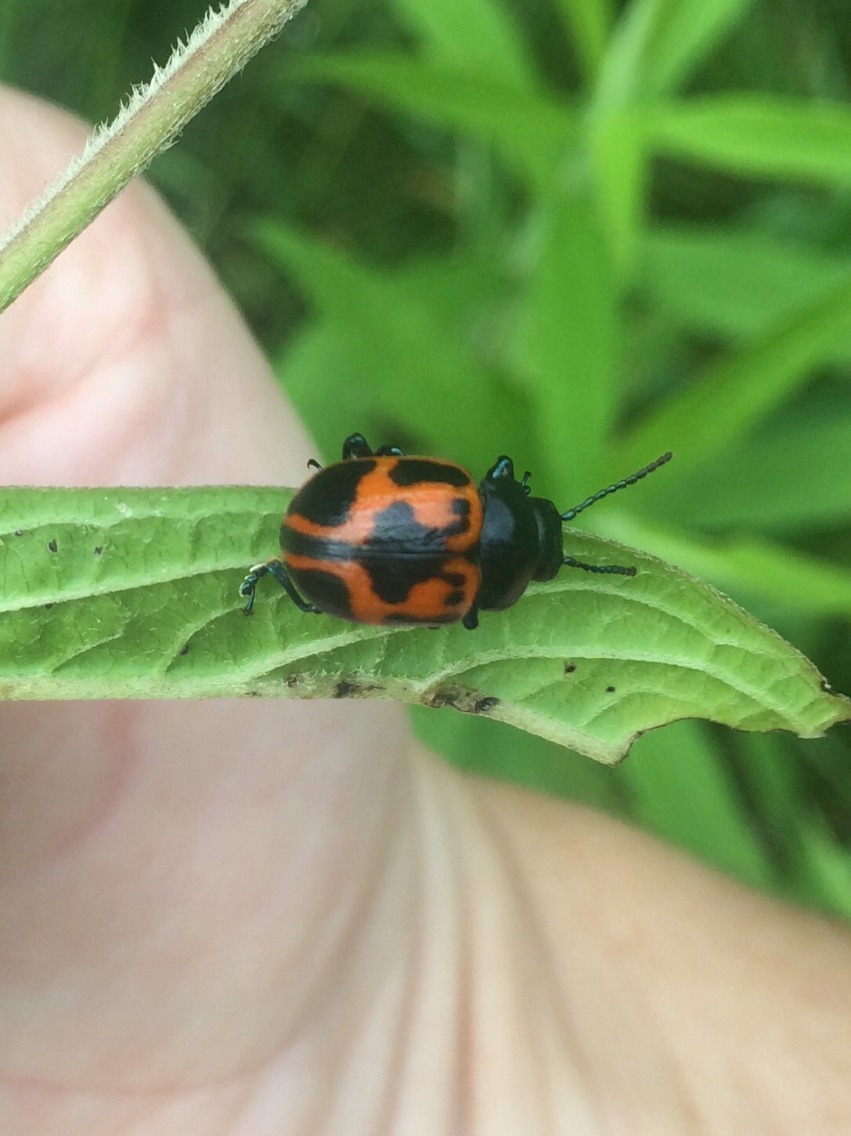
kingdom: Animalia
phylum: Arthropoda
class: Insecta
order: Coleoptera
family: Chrysomelidae
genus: Labidomera
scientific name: Labidomera clivicollis
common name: Swamp milkweed leaf beetle
